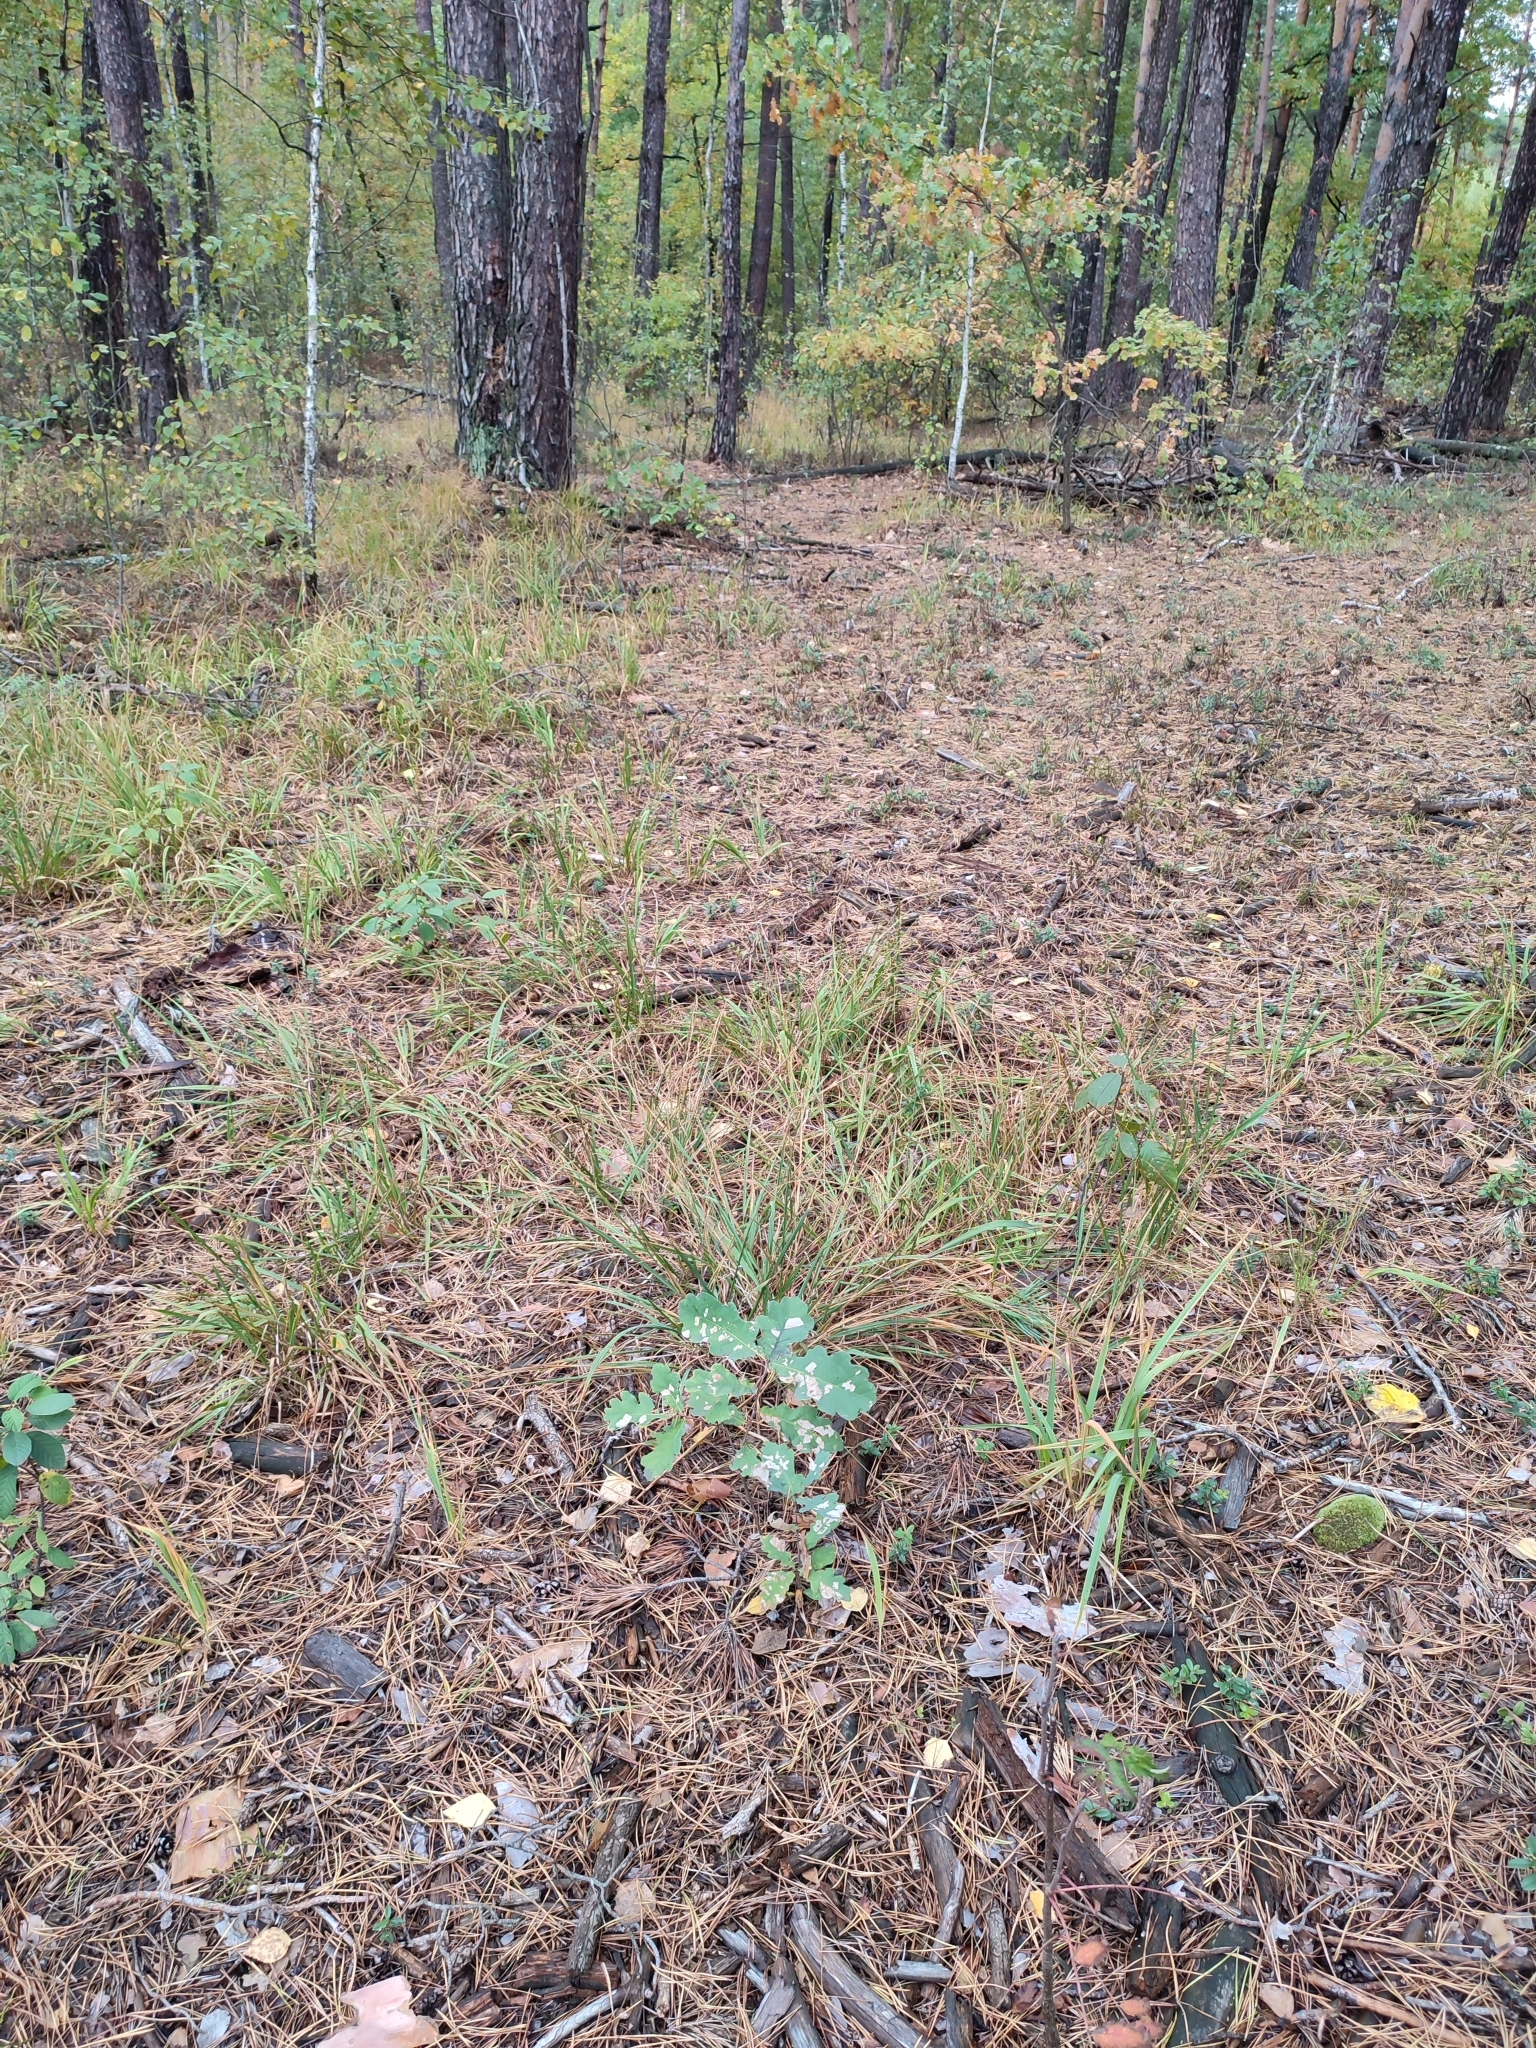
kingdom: Plantae
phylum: Tracheophyta
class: Magnoliopsida
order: Fagales
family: Fagaceae
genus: Quercus
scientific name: Quercus robur
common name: Pedunculate oak
